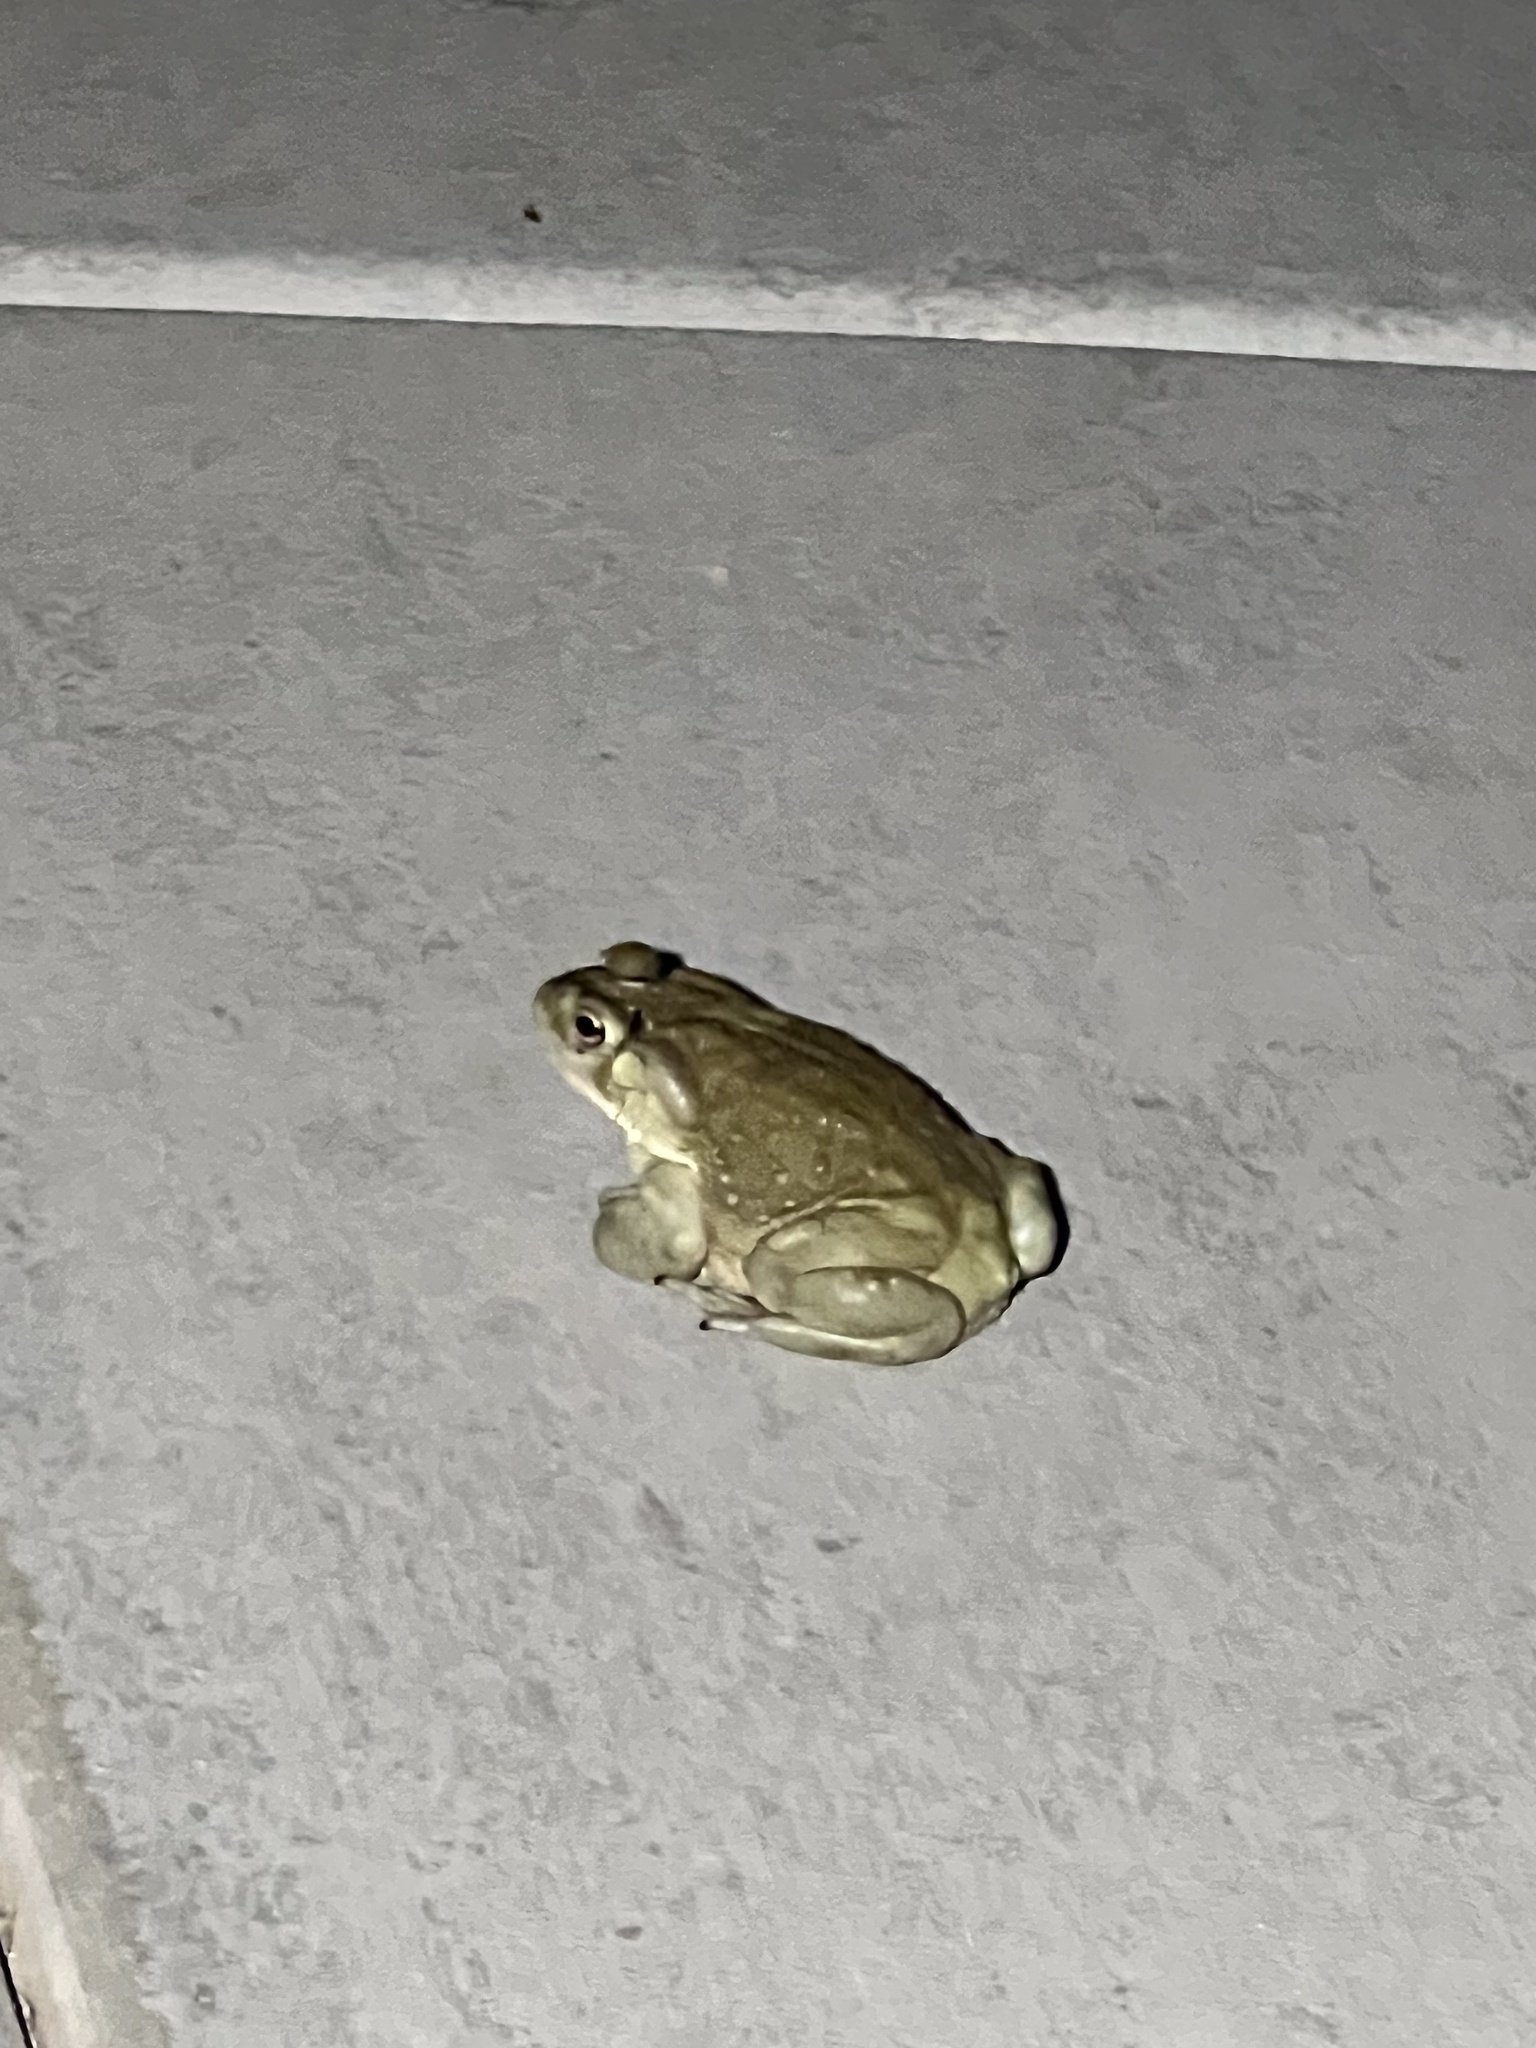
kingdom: Animalia
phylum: Chordata
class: Amphibia
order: Anura
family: Bufonidae
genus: Incilius
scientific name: Incilius alvarius
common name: Sonoran desert toad
